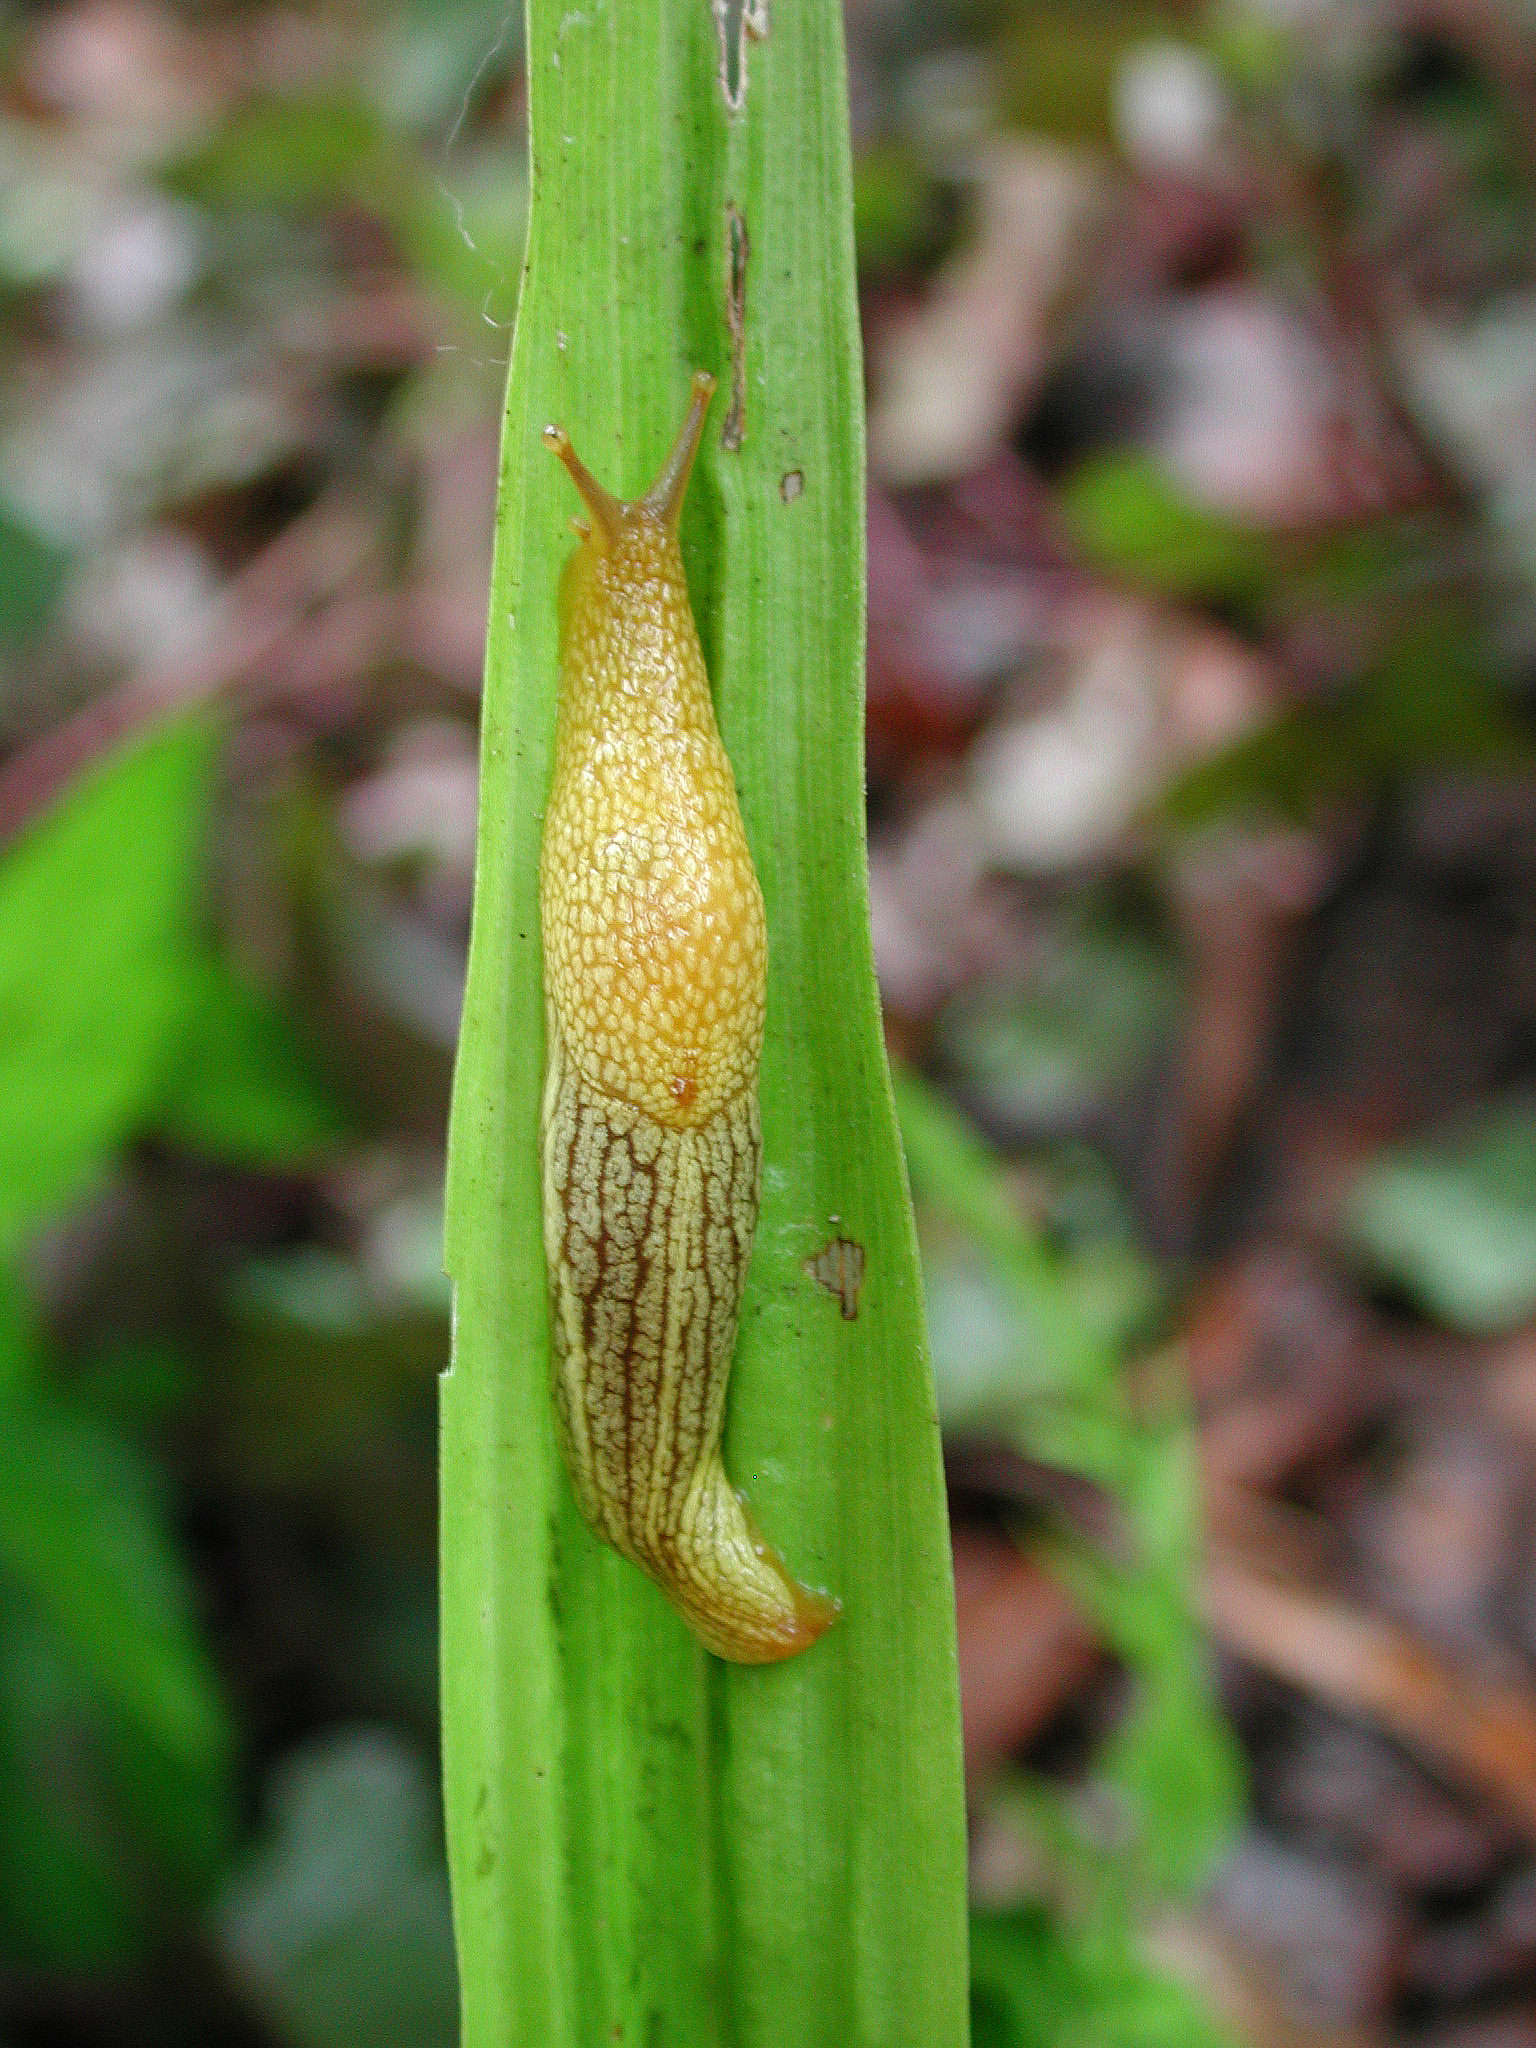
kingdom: Animalia
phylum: Mollusca
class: Gastropoda
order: Stylommatophora
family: Urocyclidae
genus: Elisolimax
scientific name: Elisolimax flavescens
